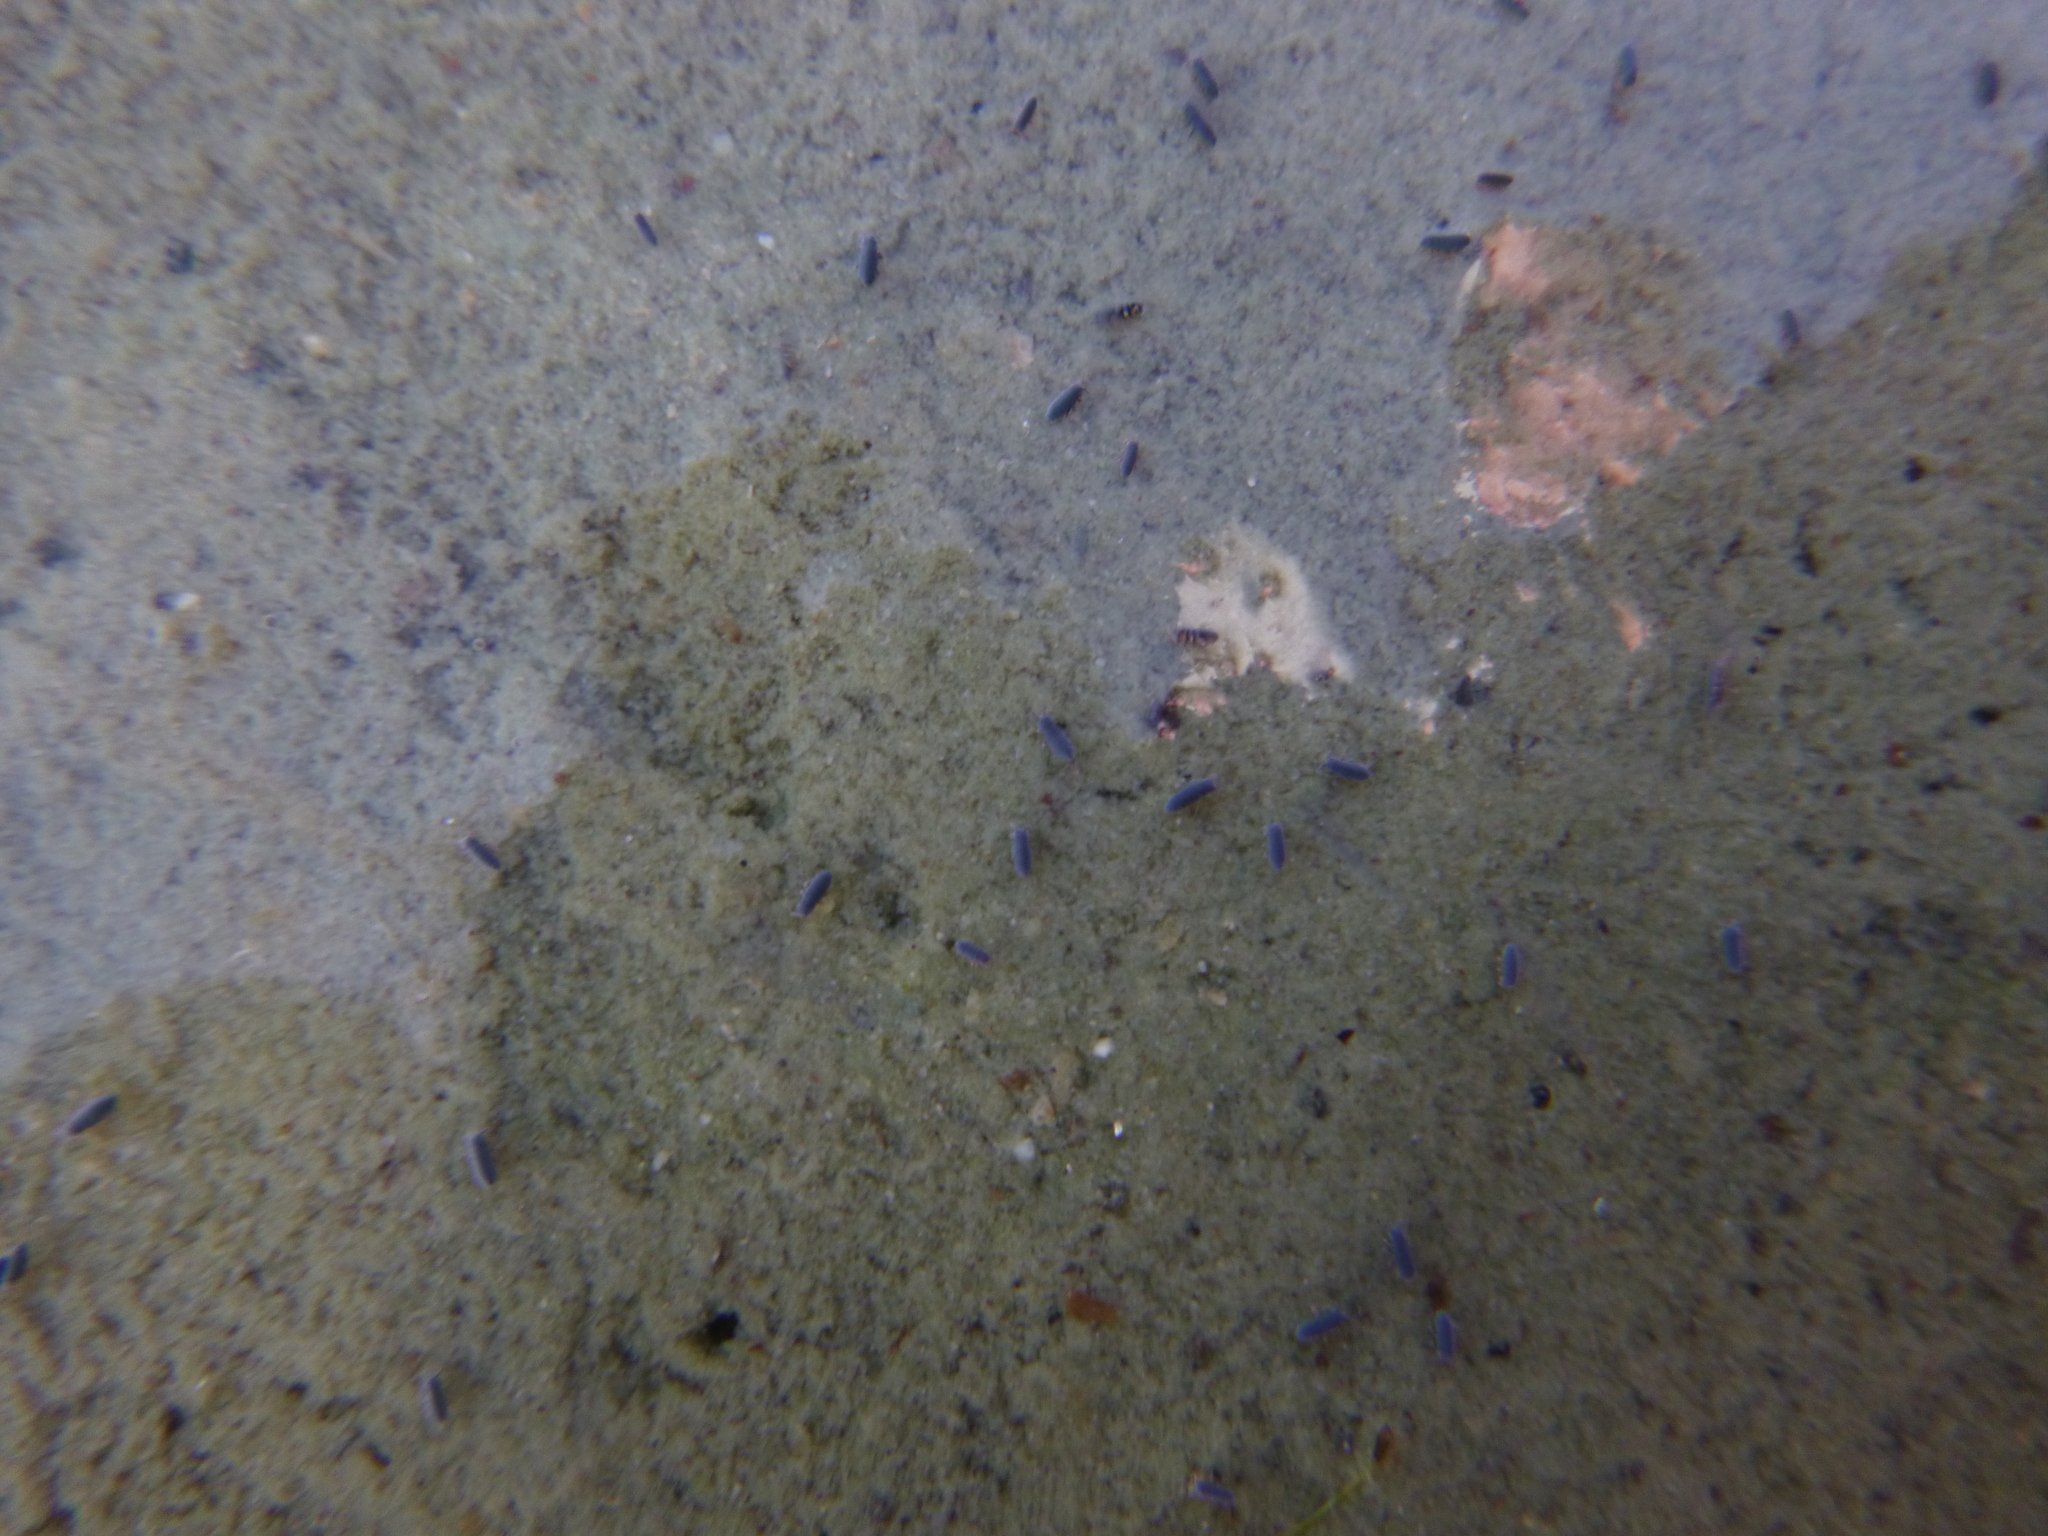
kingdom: Animalia
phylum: Arthropoda
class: Collembola
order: Poduromorpha
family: Poduridae
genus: Podura
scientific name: Podura aquatica
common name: Water springtail
